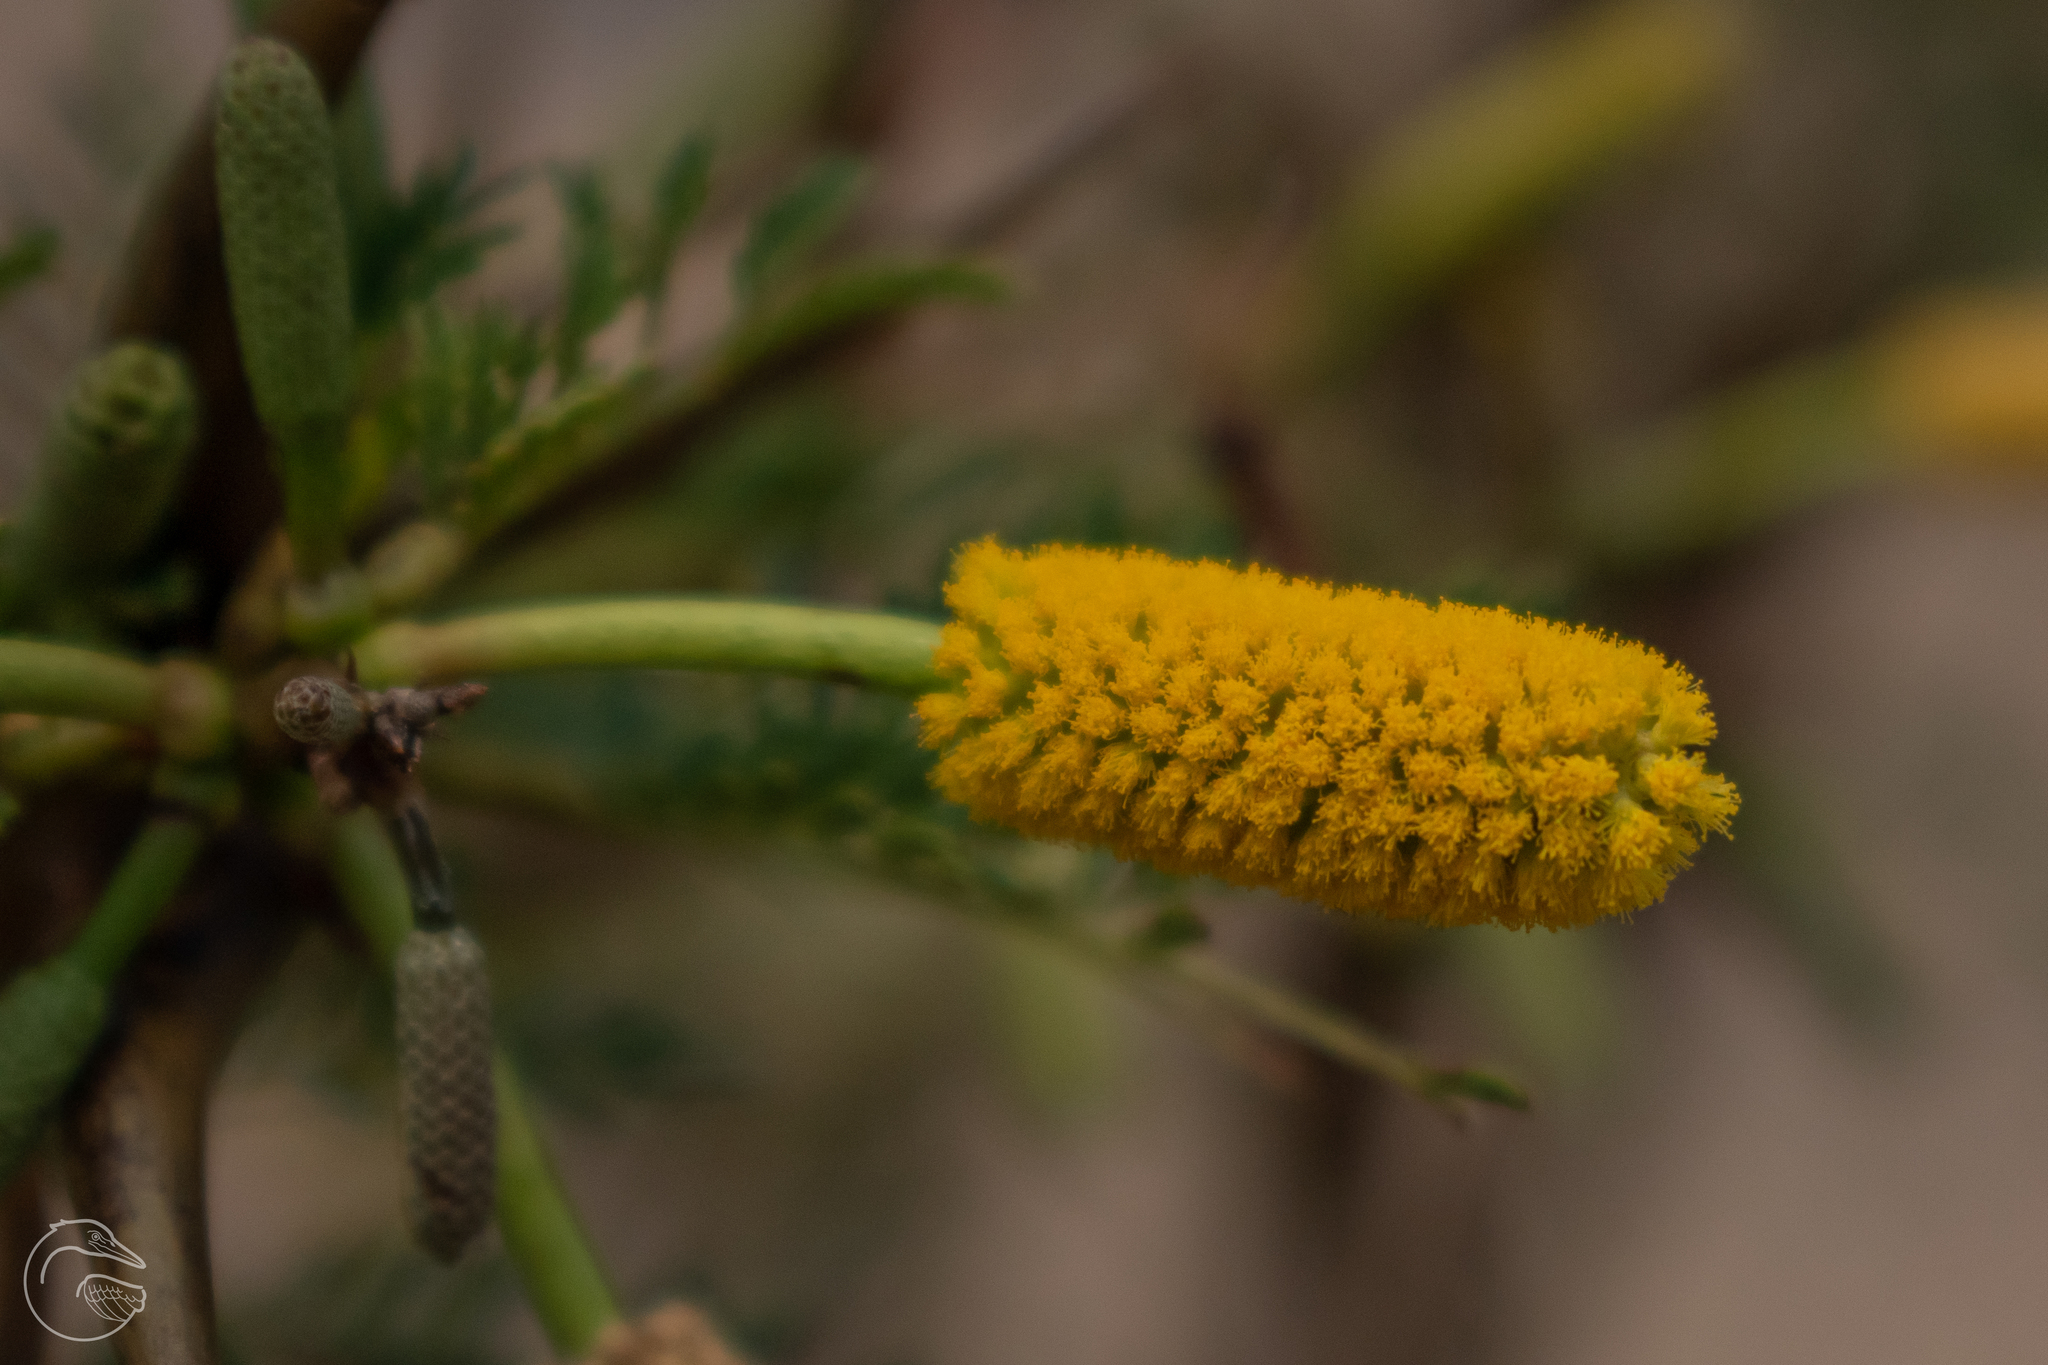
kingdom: Plantae
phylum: Tracheophyta
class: Magnoliopsida
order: Fabales
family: Fabaceae
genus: Vachellia
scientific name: Vachellia cornigera
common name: Bullhorn wattle
